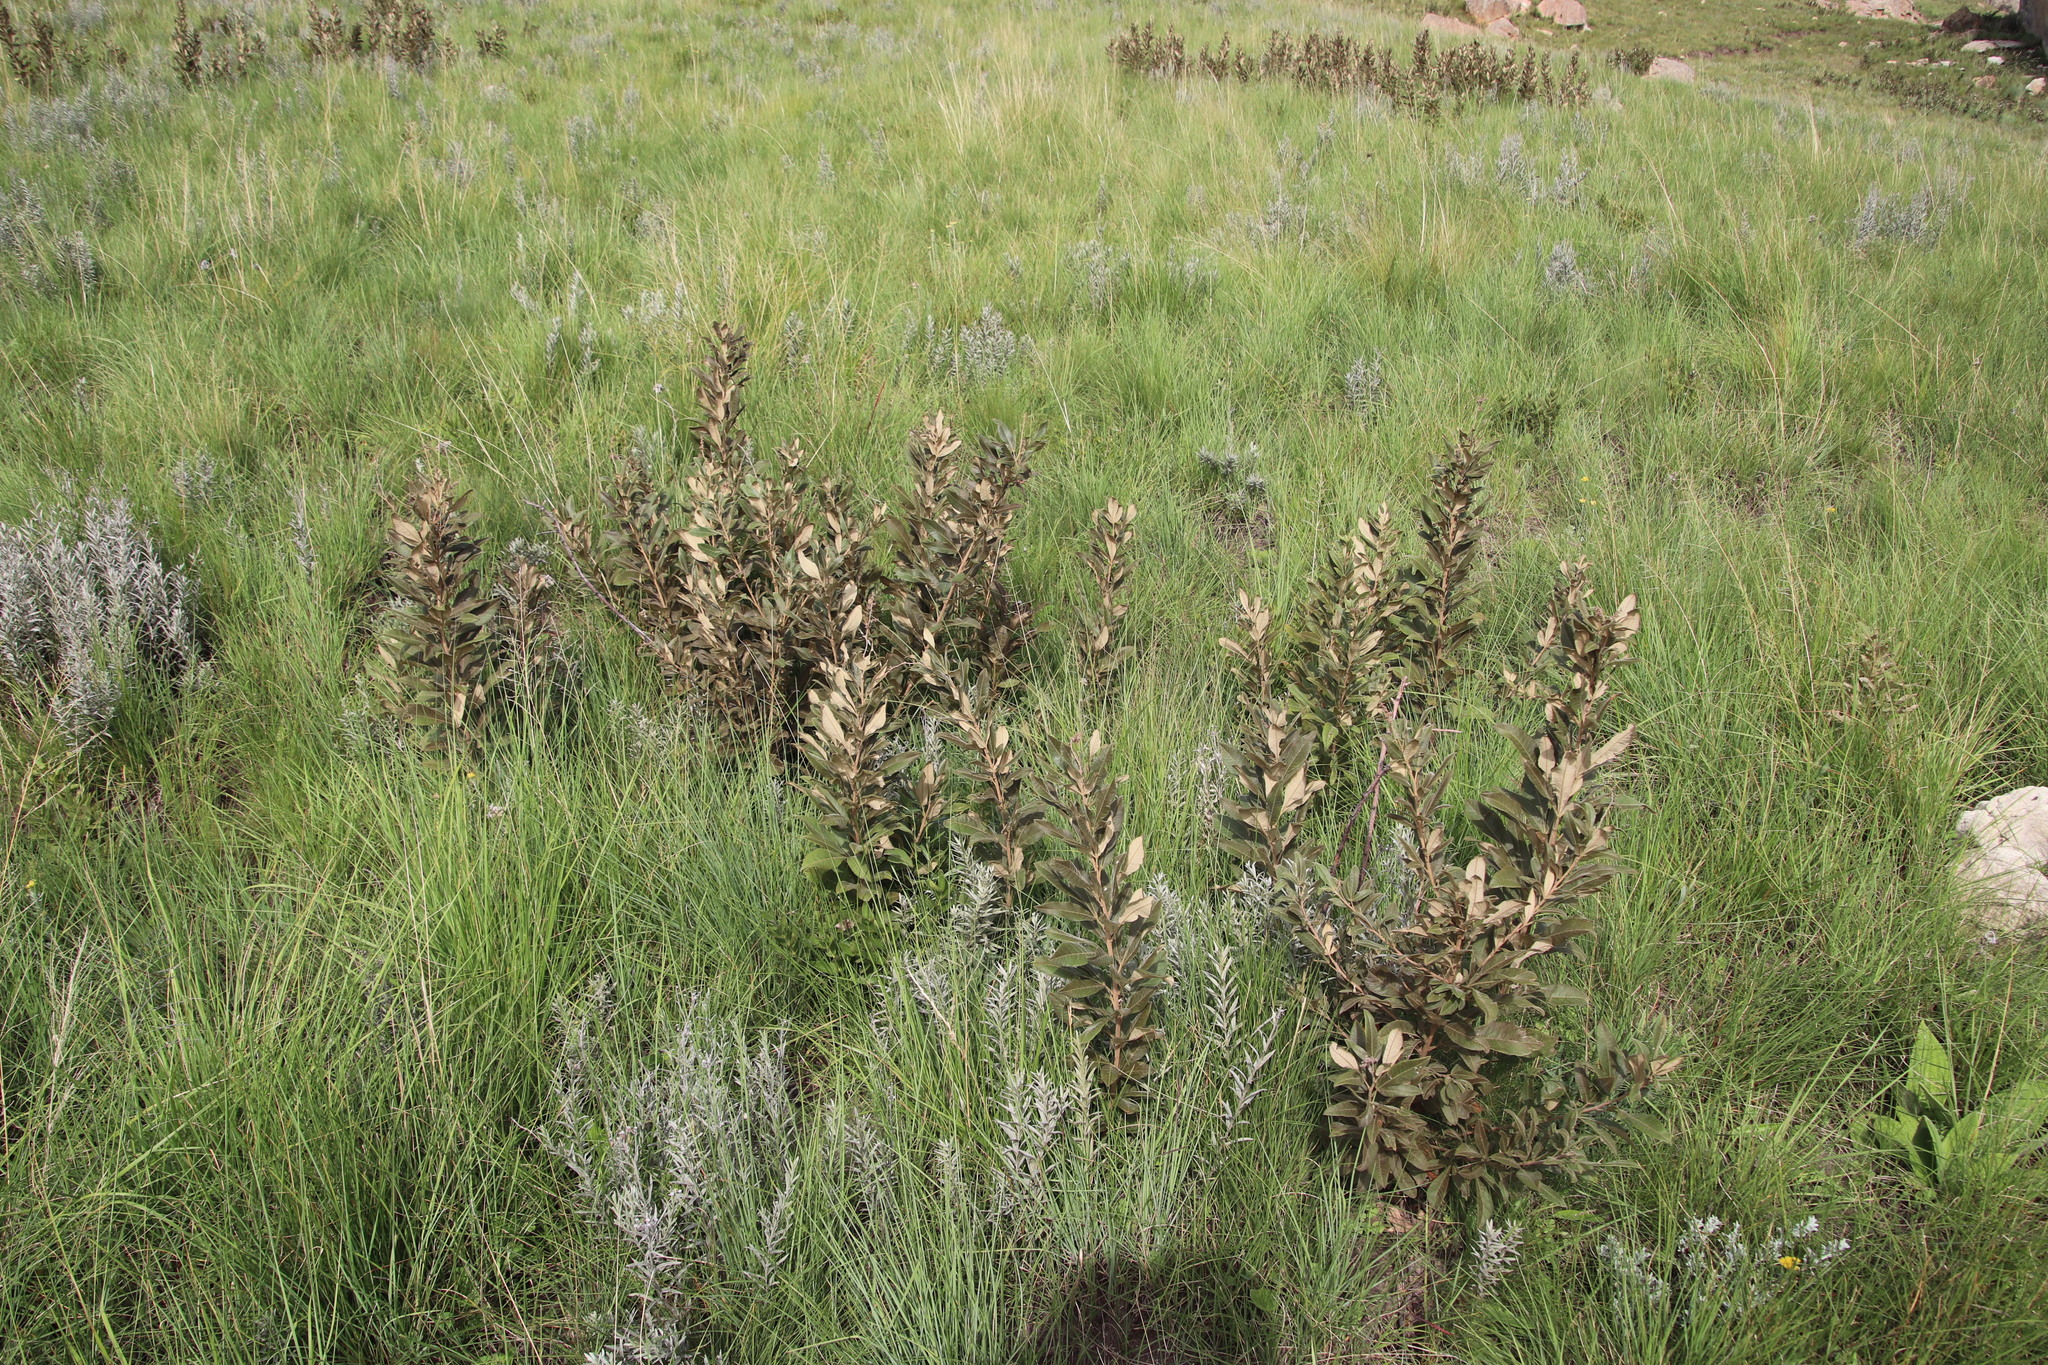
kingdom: Plantae
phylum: Tracheophyta
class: Magnoliopsida
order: Sapindales
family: Anacardiaceae
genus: Searsia
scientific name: Searsia discolor
